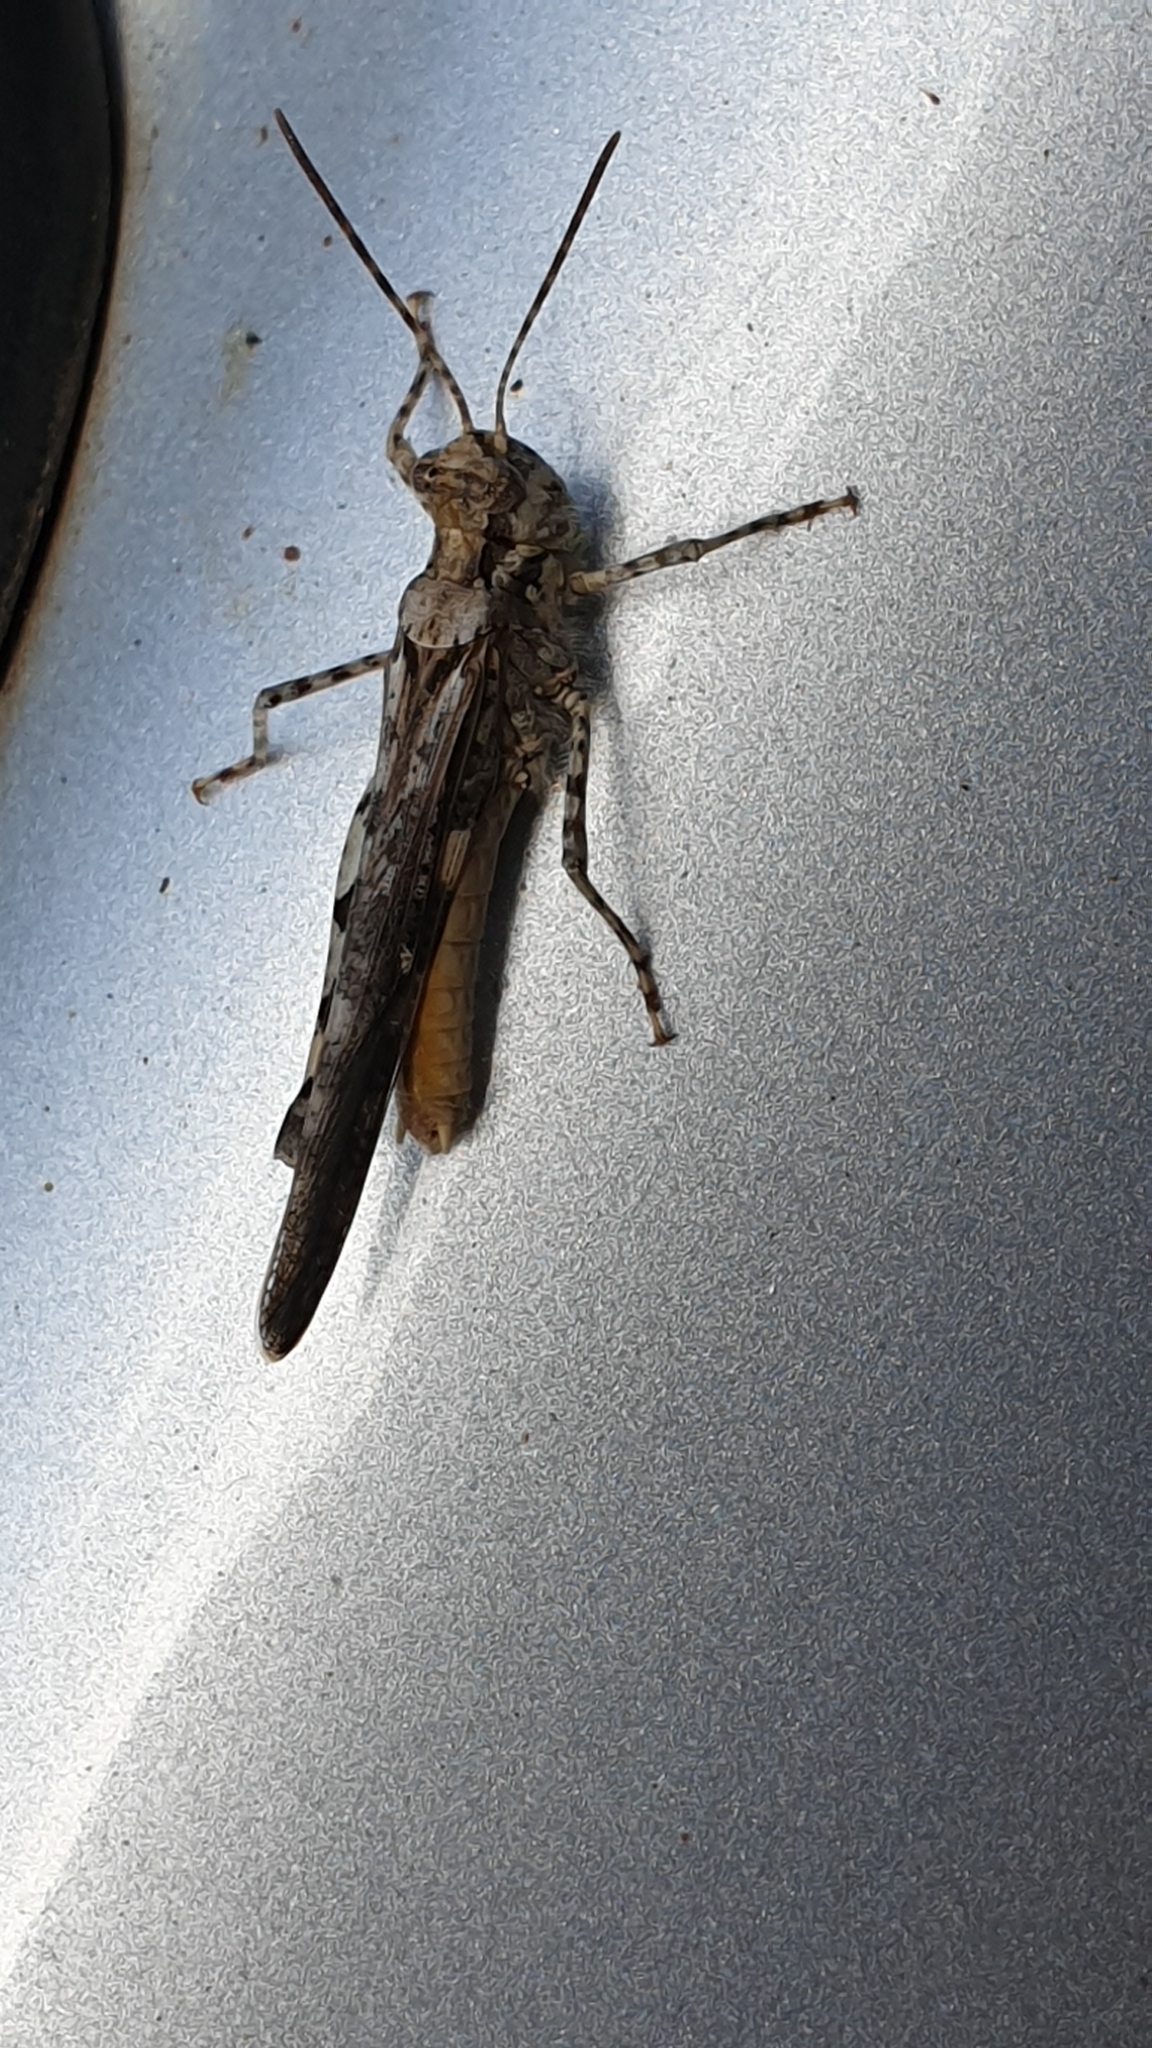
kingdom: Animalia
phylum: Arthropoda
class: Insecta
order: Orthoptera
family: Acrididae
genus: Acrotylus
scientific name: Acrotylus patruelis
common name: Slender burrowing grasshopper
